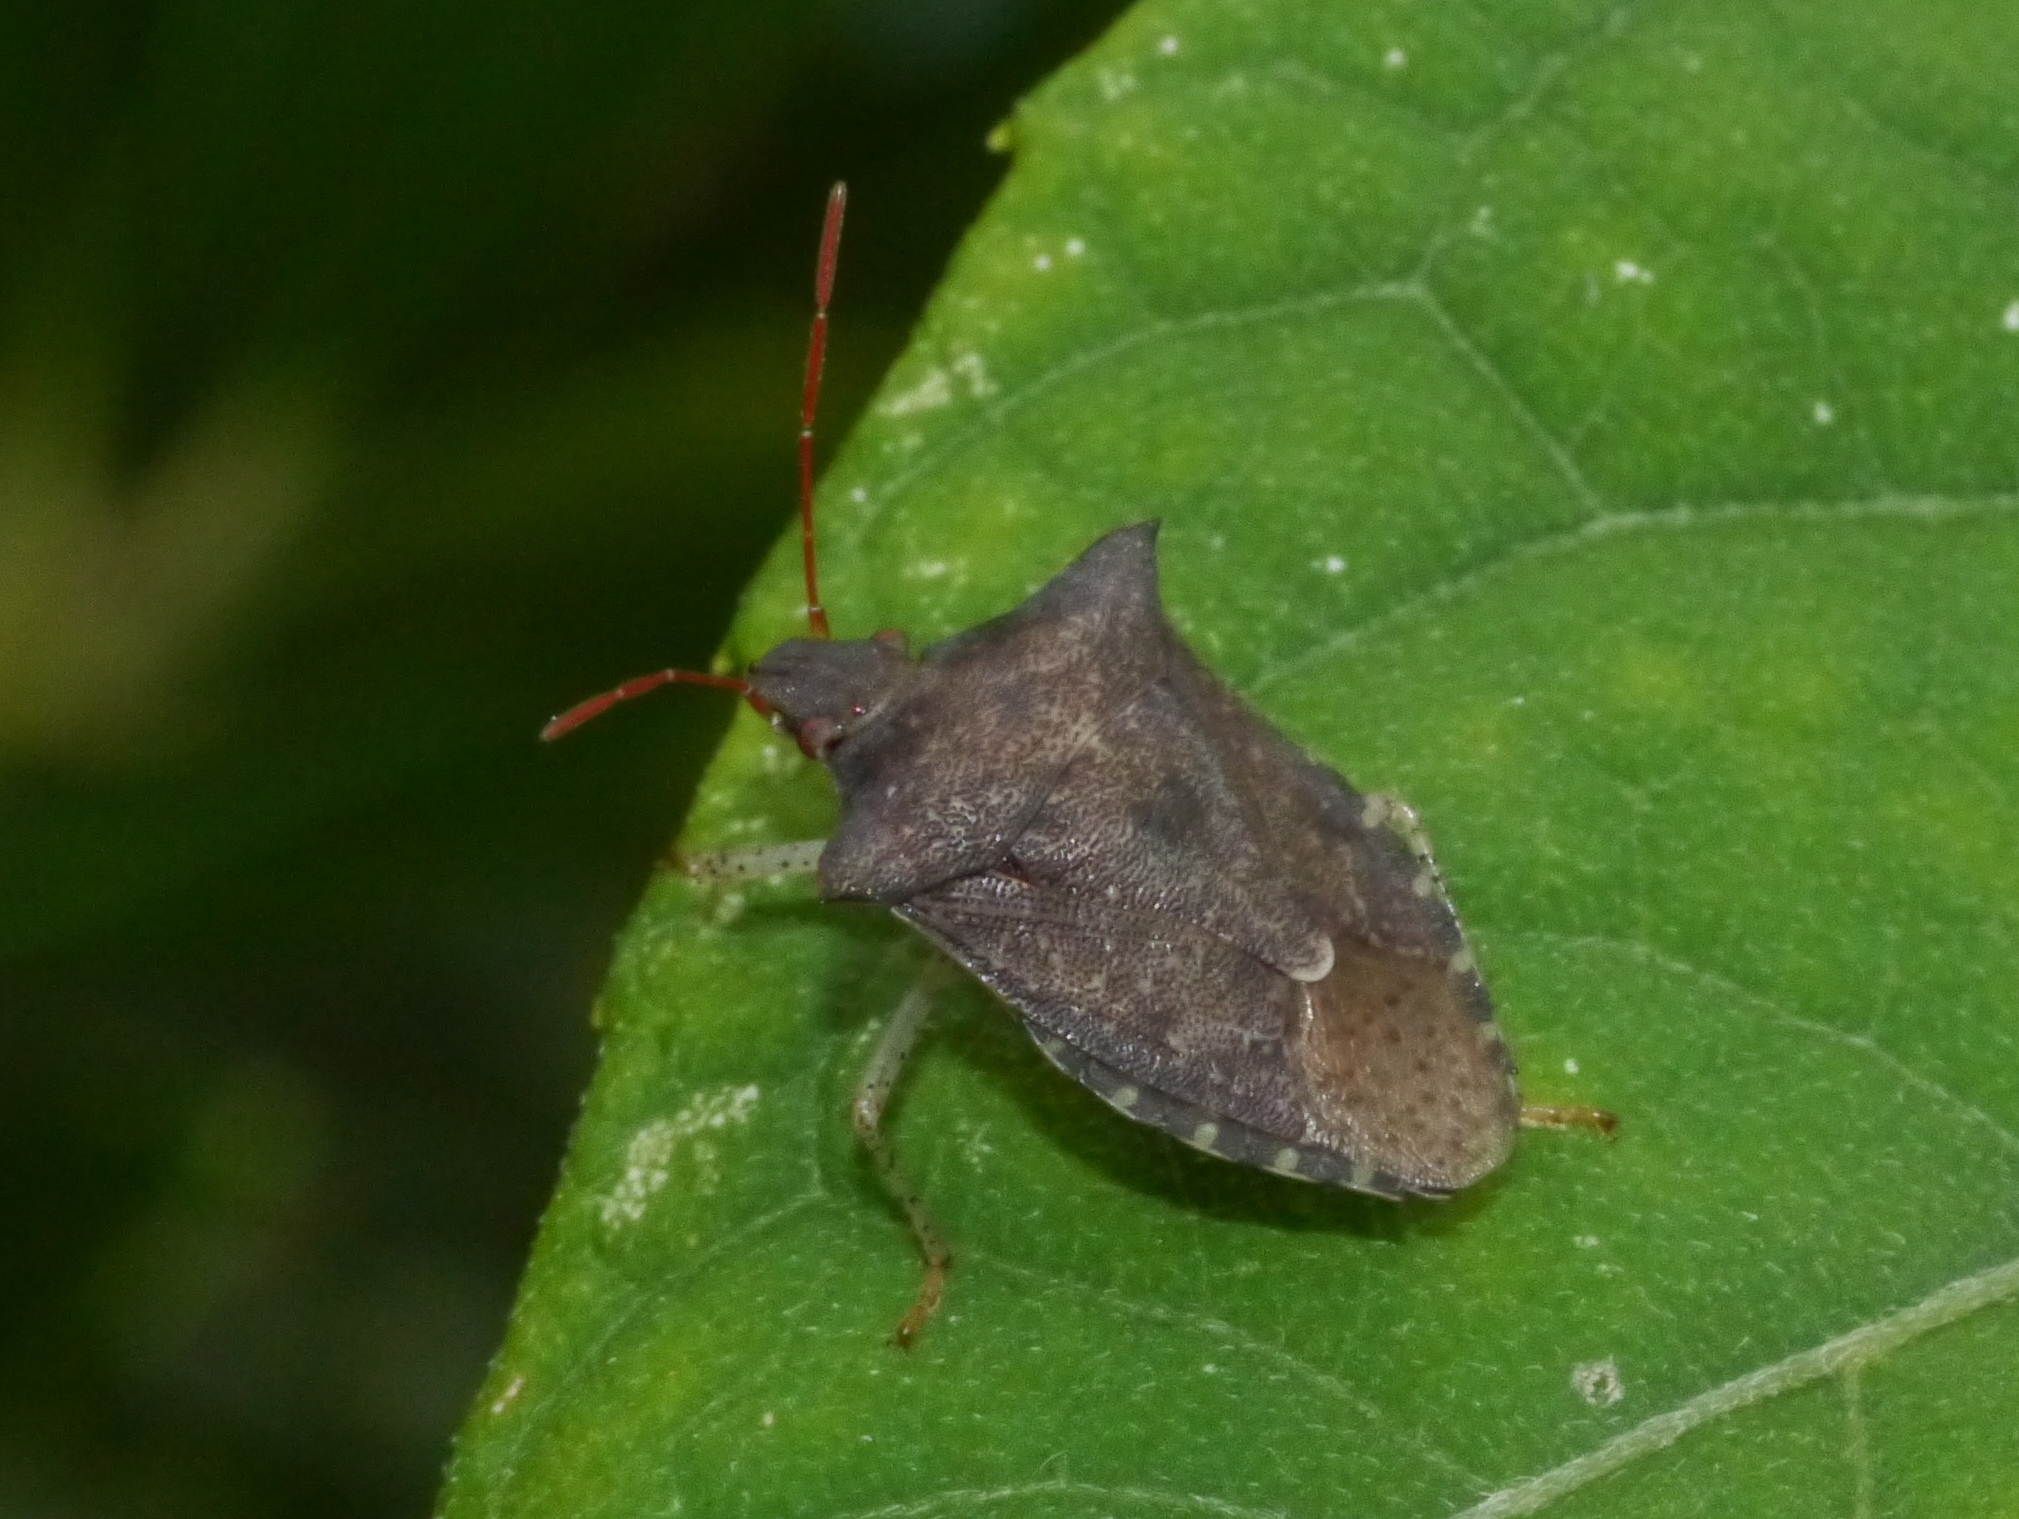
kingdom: Animalia
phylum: Arthropoda
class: Insecta
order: Hemiptera
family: Pentatomidae
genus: Euschistus
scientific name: Euschistus tristigmus
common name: Dusky stink bug
